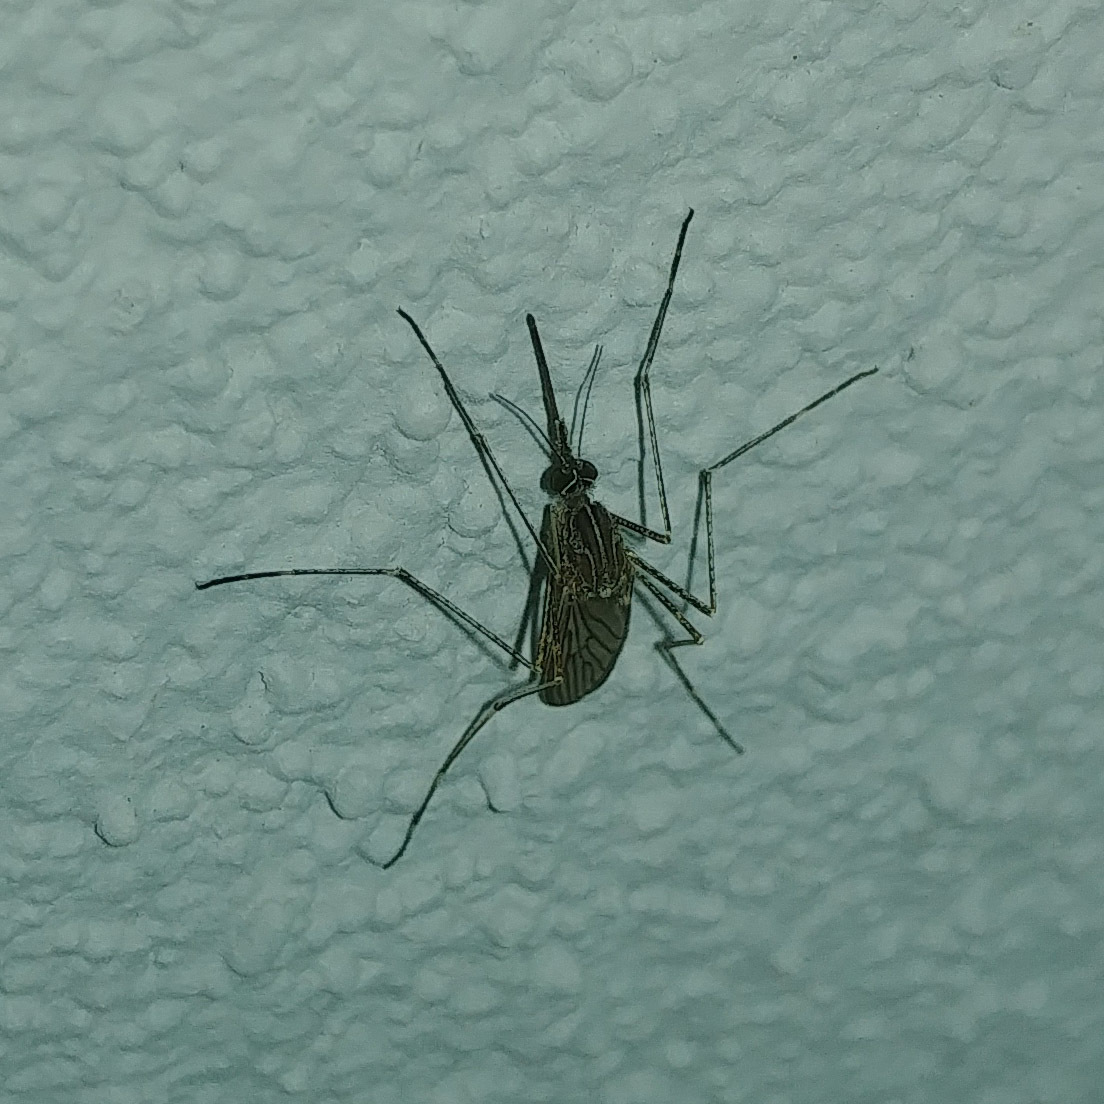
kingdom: Animalia
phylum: Arthropoda
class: Insecta
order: Diptera
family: Culicidae
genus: Culiseta
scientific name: Culiseta longiareolata
